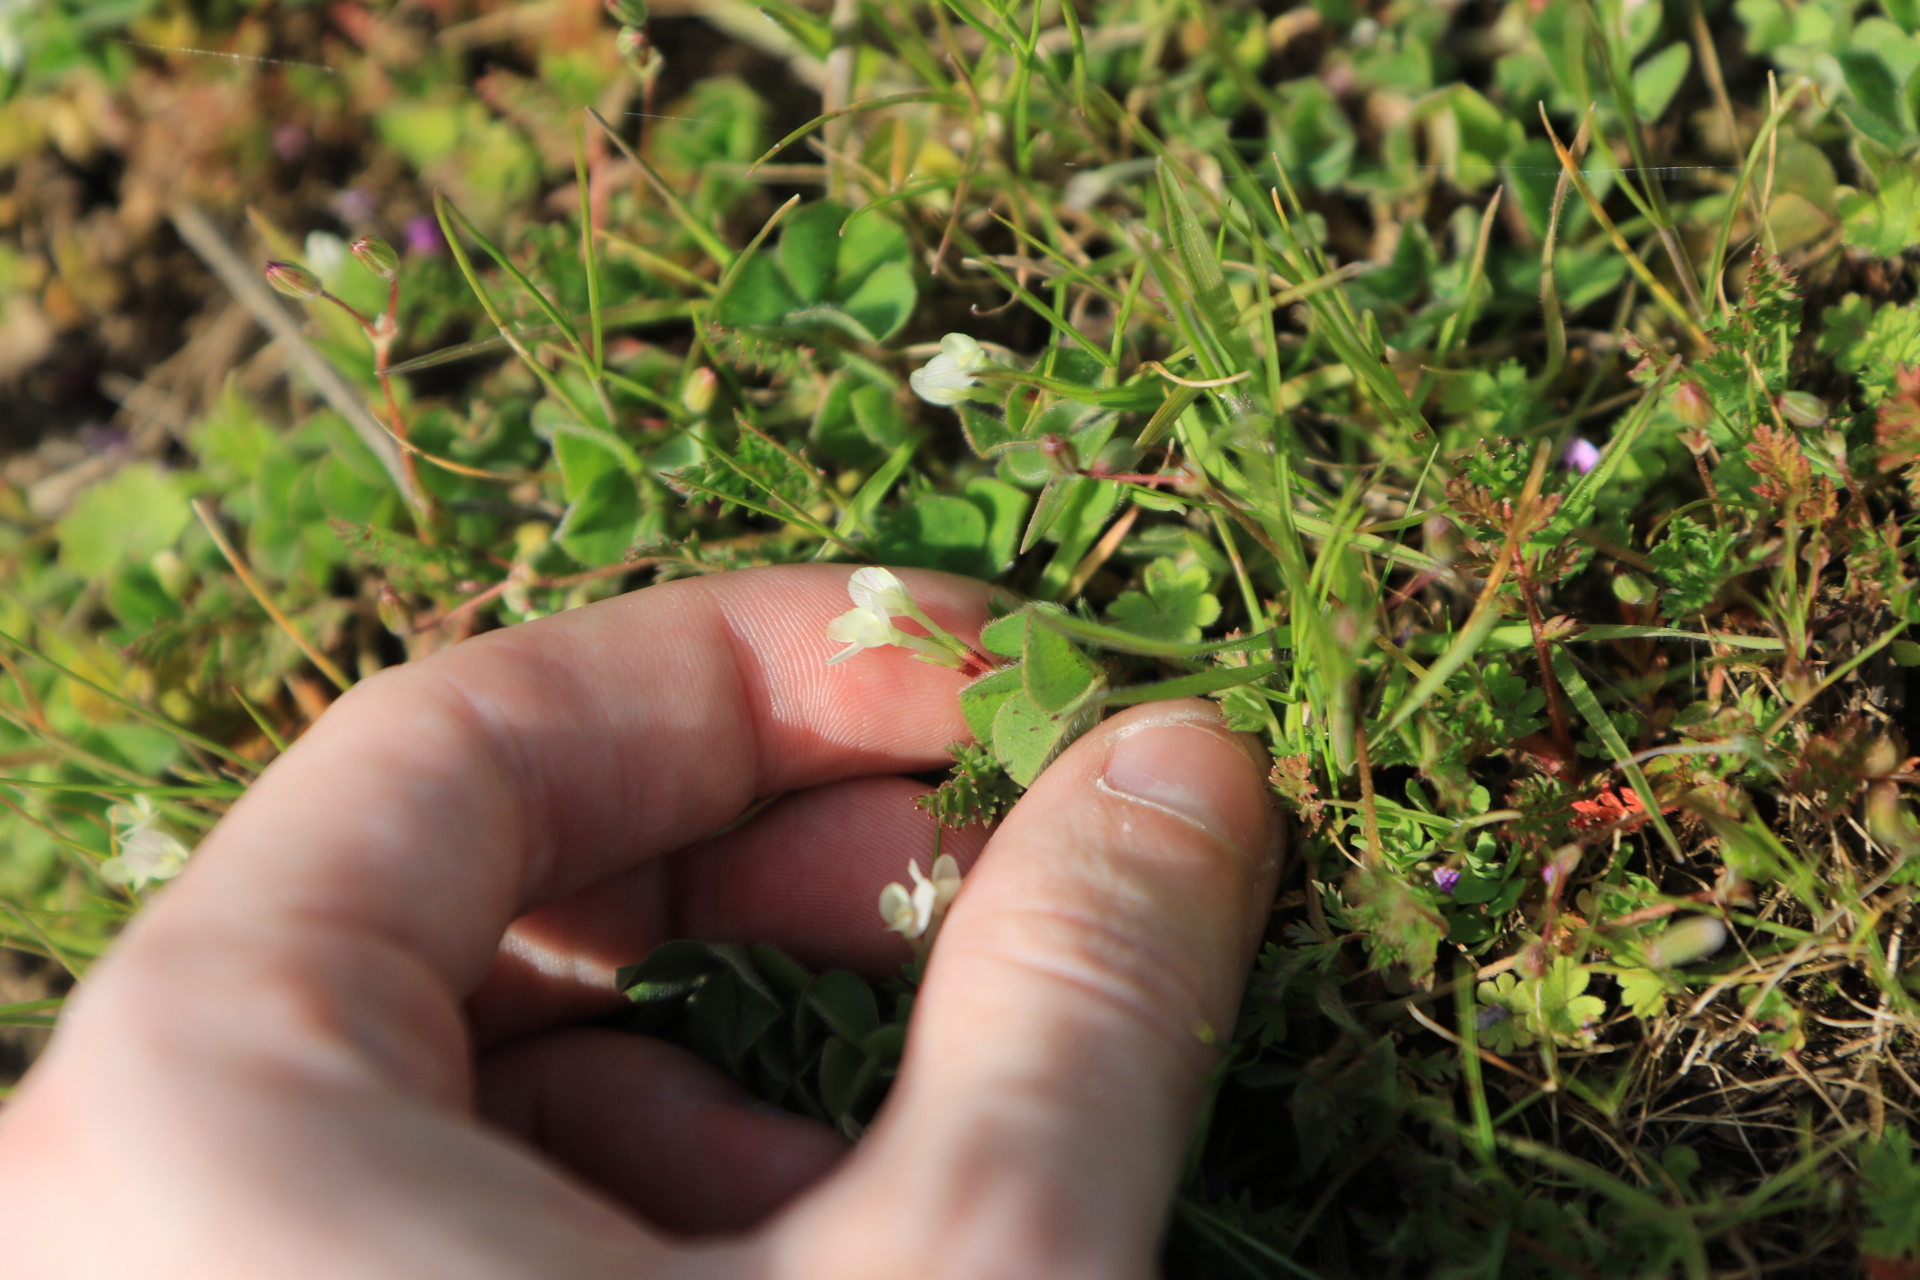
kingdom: Plantae
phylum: Tracheophyta
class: Magnoliopsida
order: Fabales
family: Fabaceae
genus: Trifolium
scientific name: Trifolium subterraneum
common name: Subterranean clover
